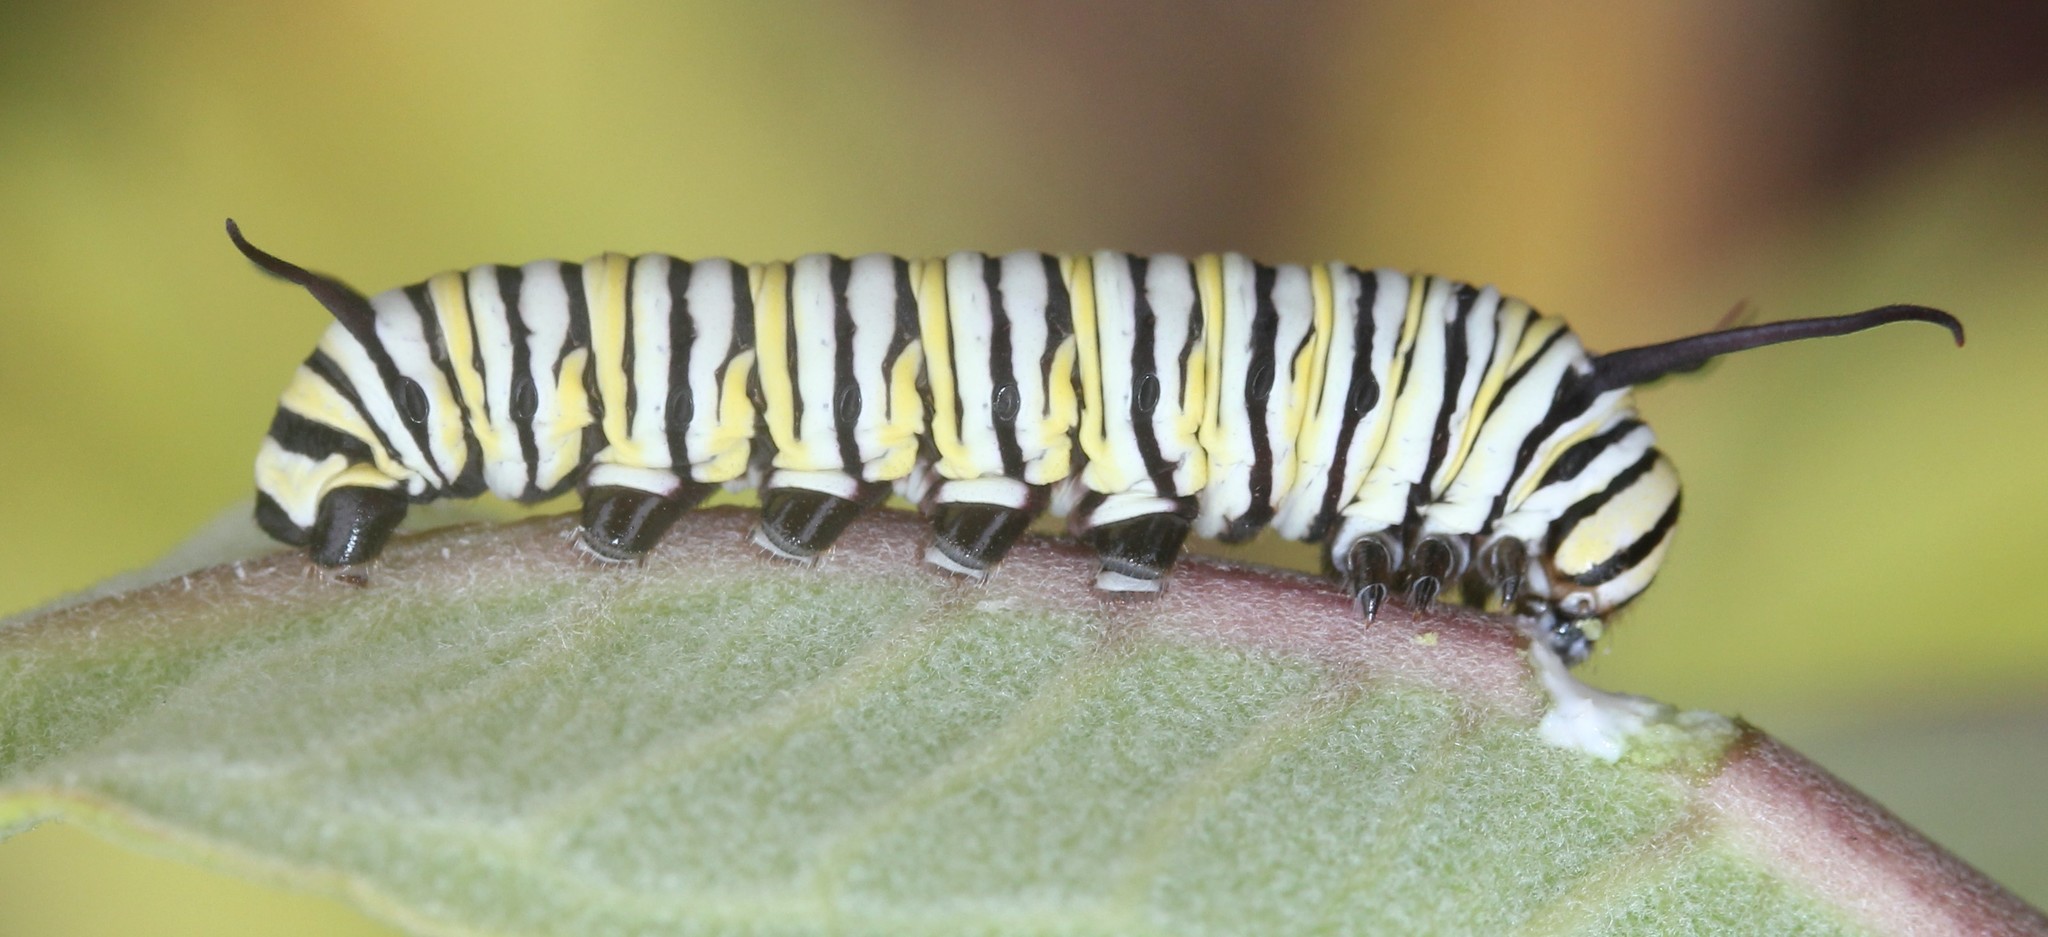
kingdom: Animalia
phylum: Arthropoda
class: Insecta
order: Lepidoptera
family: Nymphalidae
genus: Danaus
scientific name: Danaus plexippus
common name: Monarch
